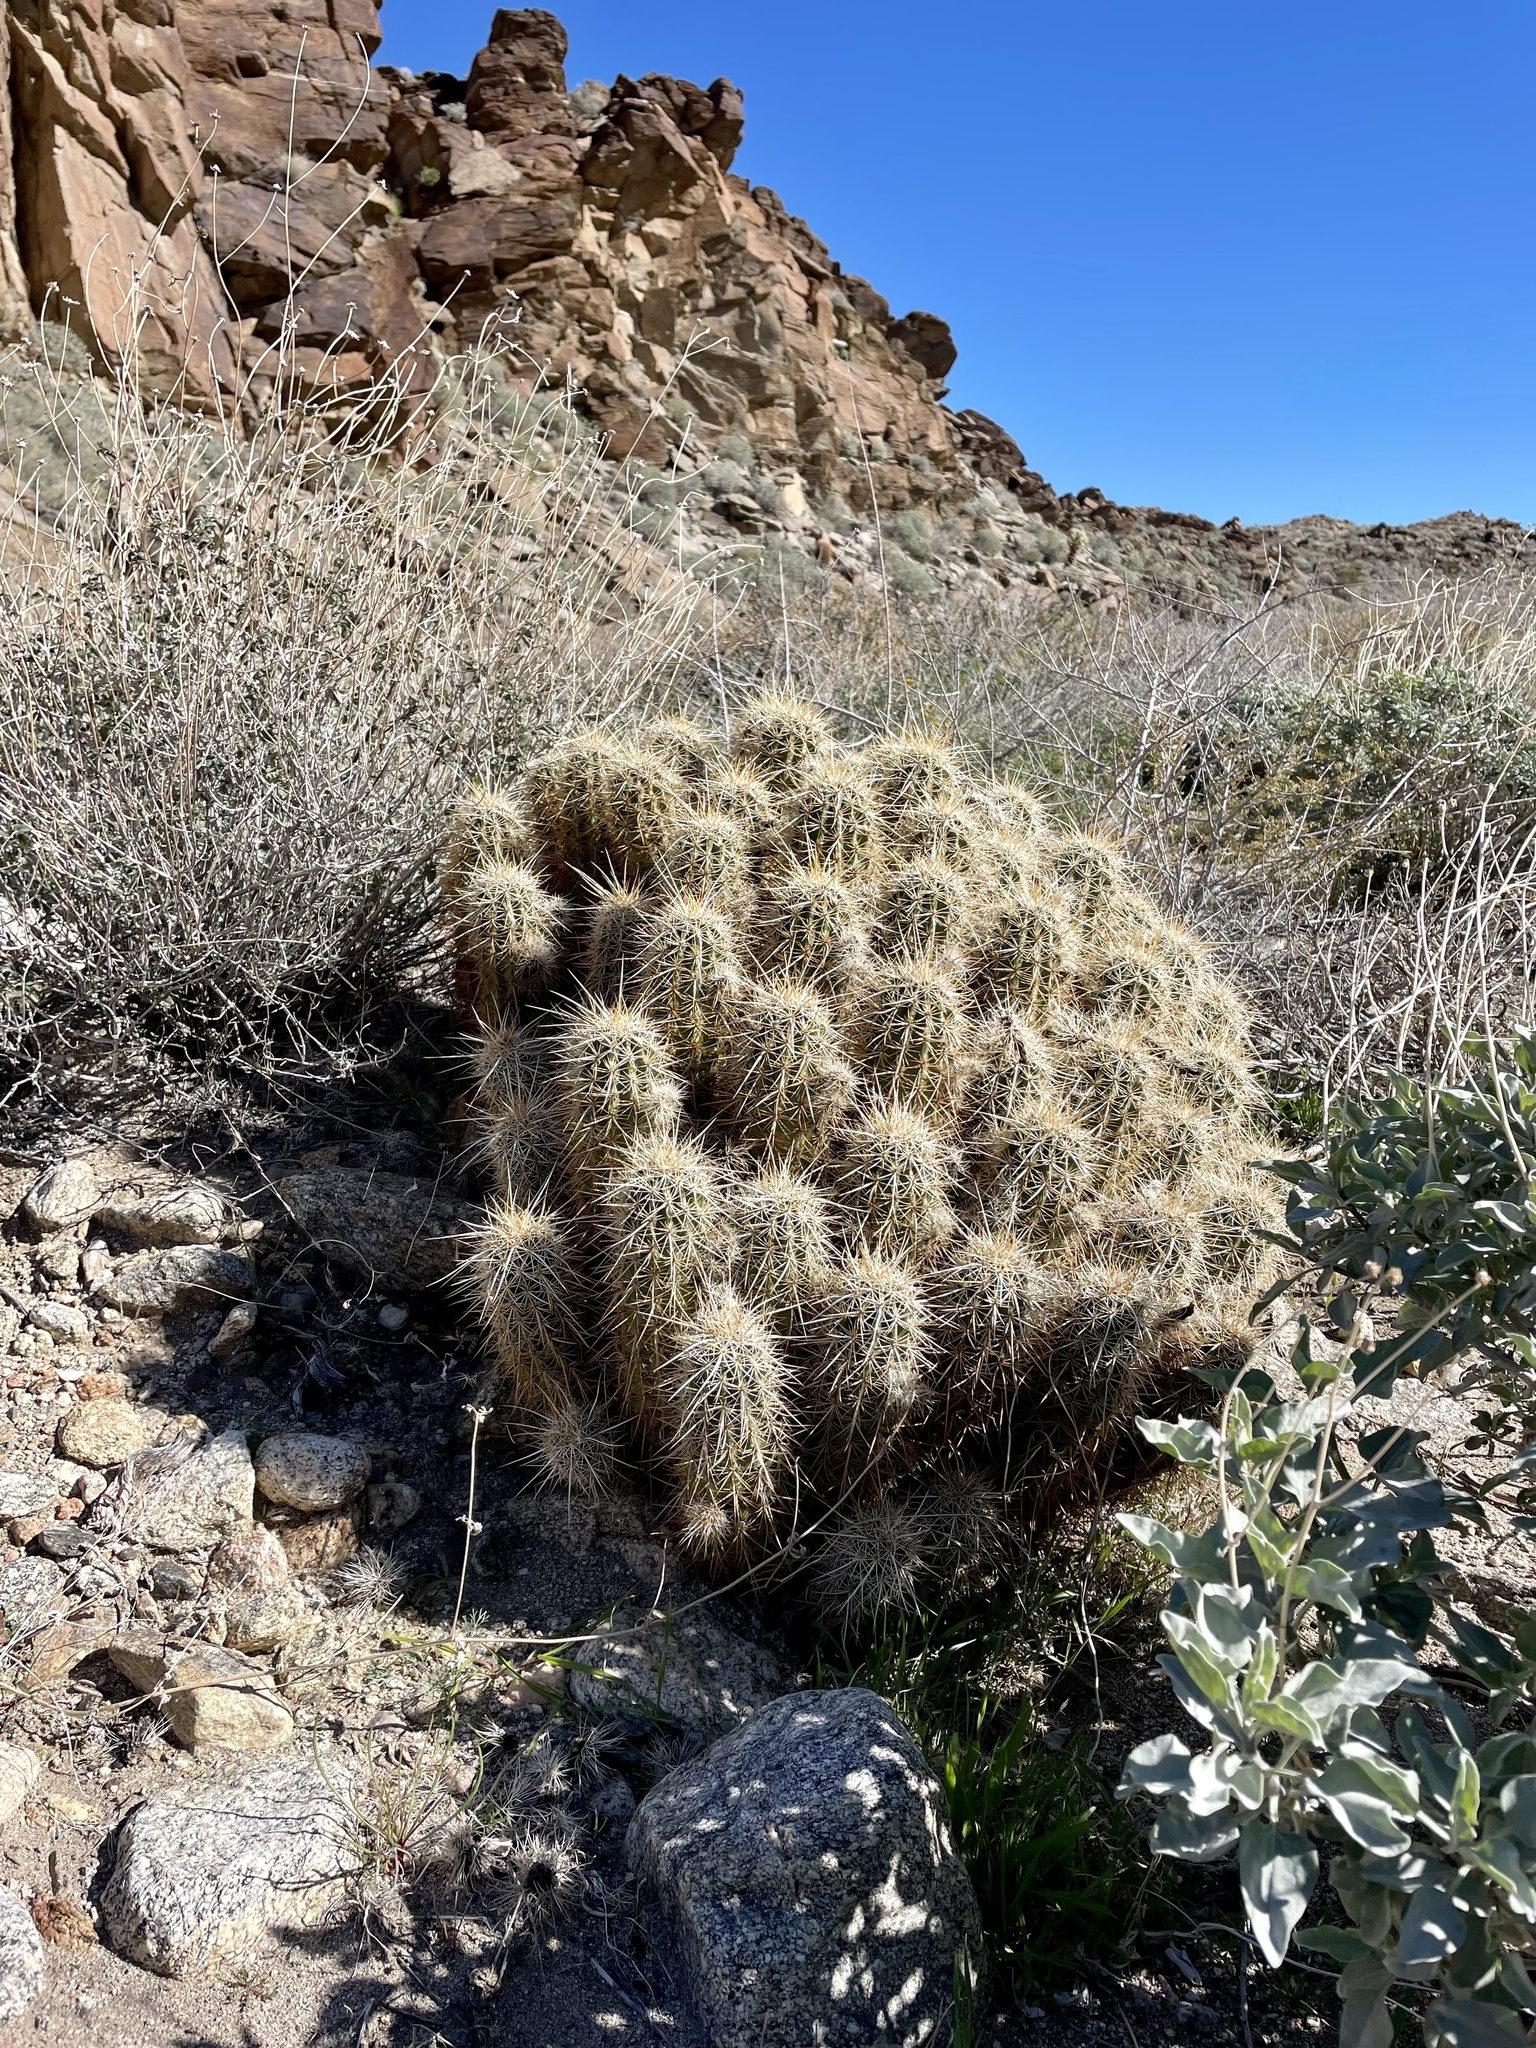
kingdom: Plantae
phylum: Tracheophyta
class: Magnoliopsida
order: Caryophyllales
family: Cactaceae
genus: Echinocereus
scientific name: Echinocereus engelmannii
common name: Engelmann's hedgehog cactus
